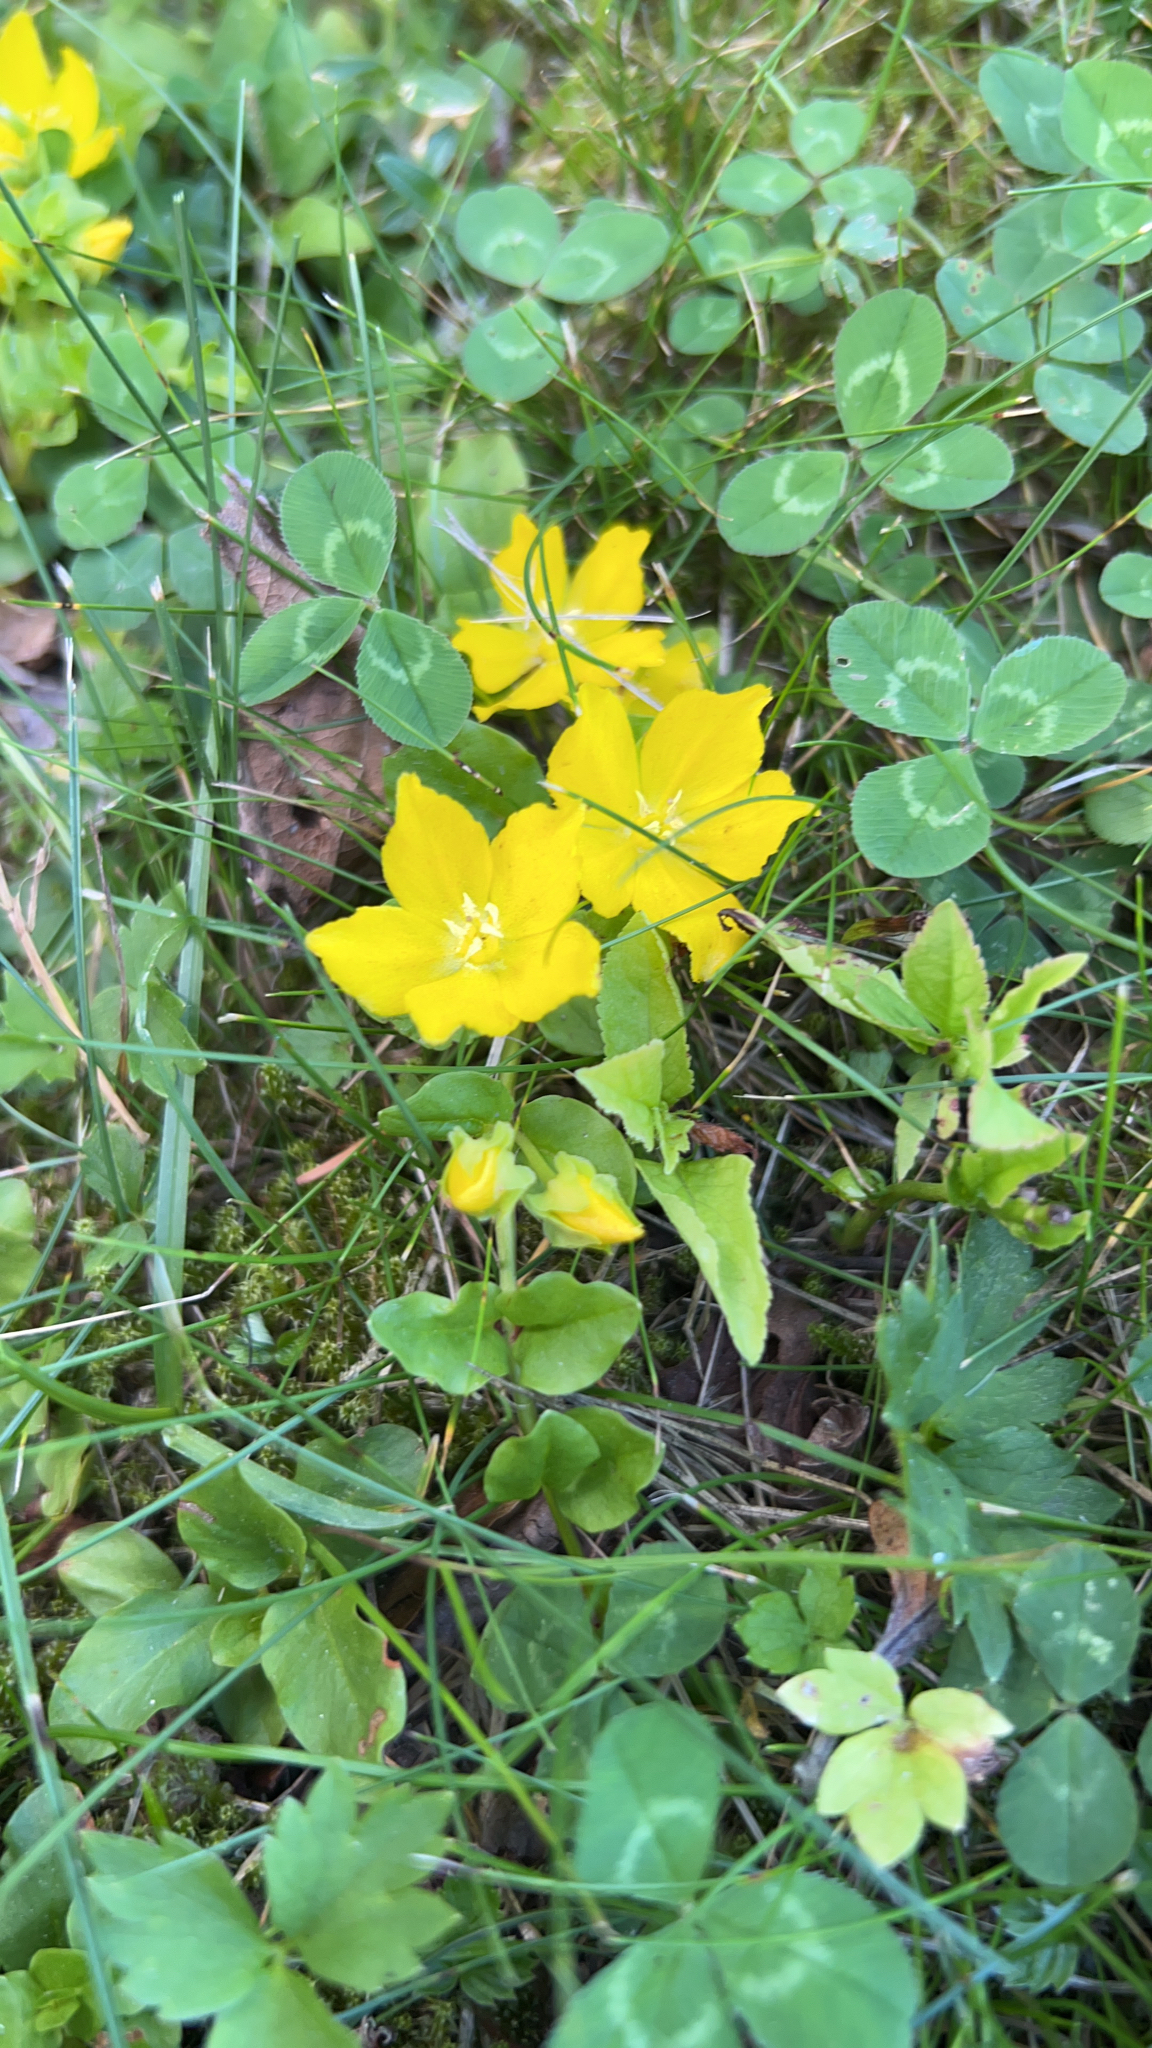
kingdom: Plantae
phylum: Tracheophyta
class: Magnoliopsida
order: Ericales
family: Primulaceae
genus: Lysimachia
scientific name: Lysimachia nummularia
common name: Moneywort
